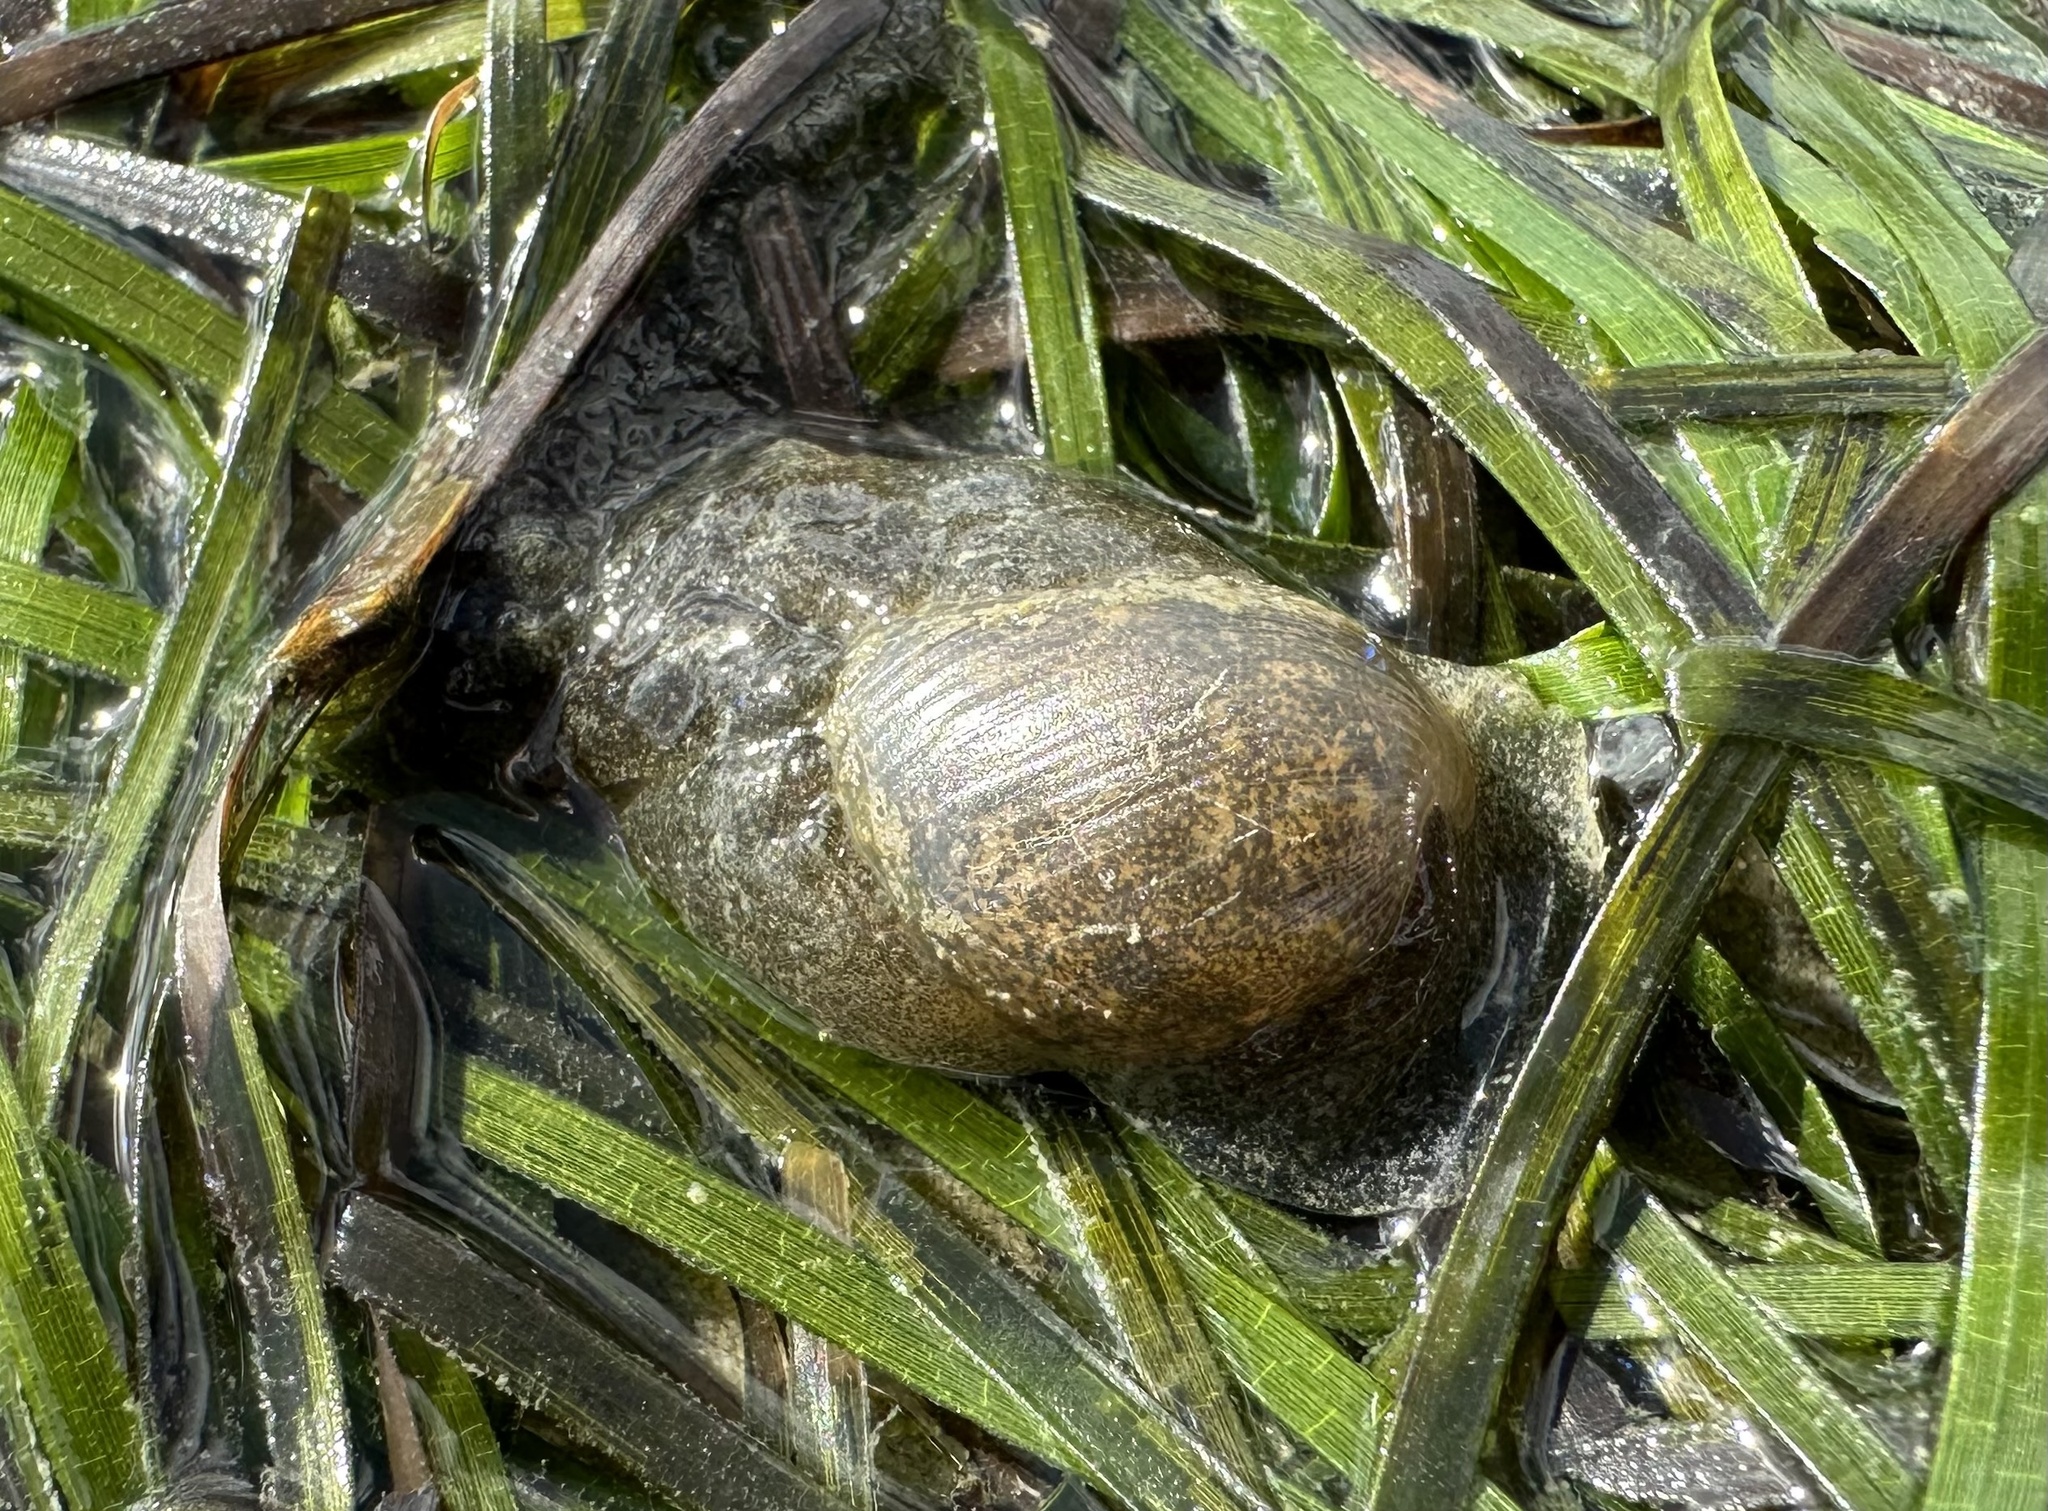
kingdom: Animalia
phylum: Mollusca
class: Gastropoda
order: Cephalaspidea
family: Haminoeidae
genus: Papawera
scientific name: Papawera zelandiae
